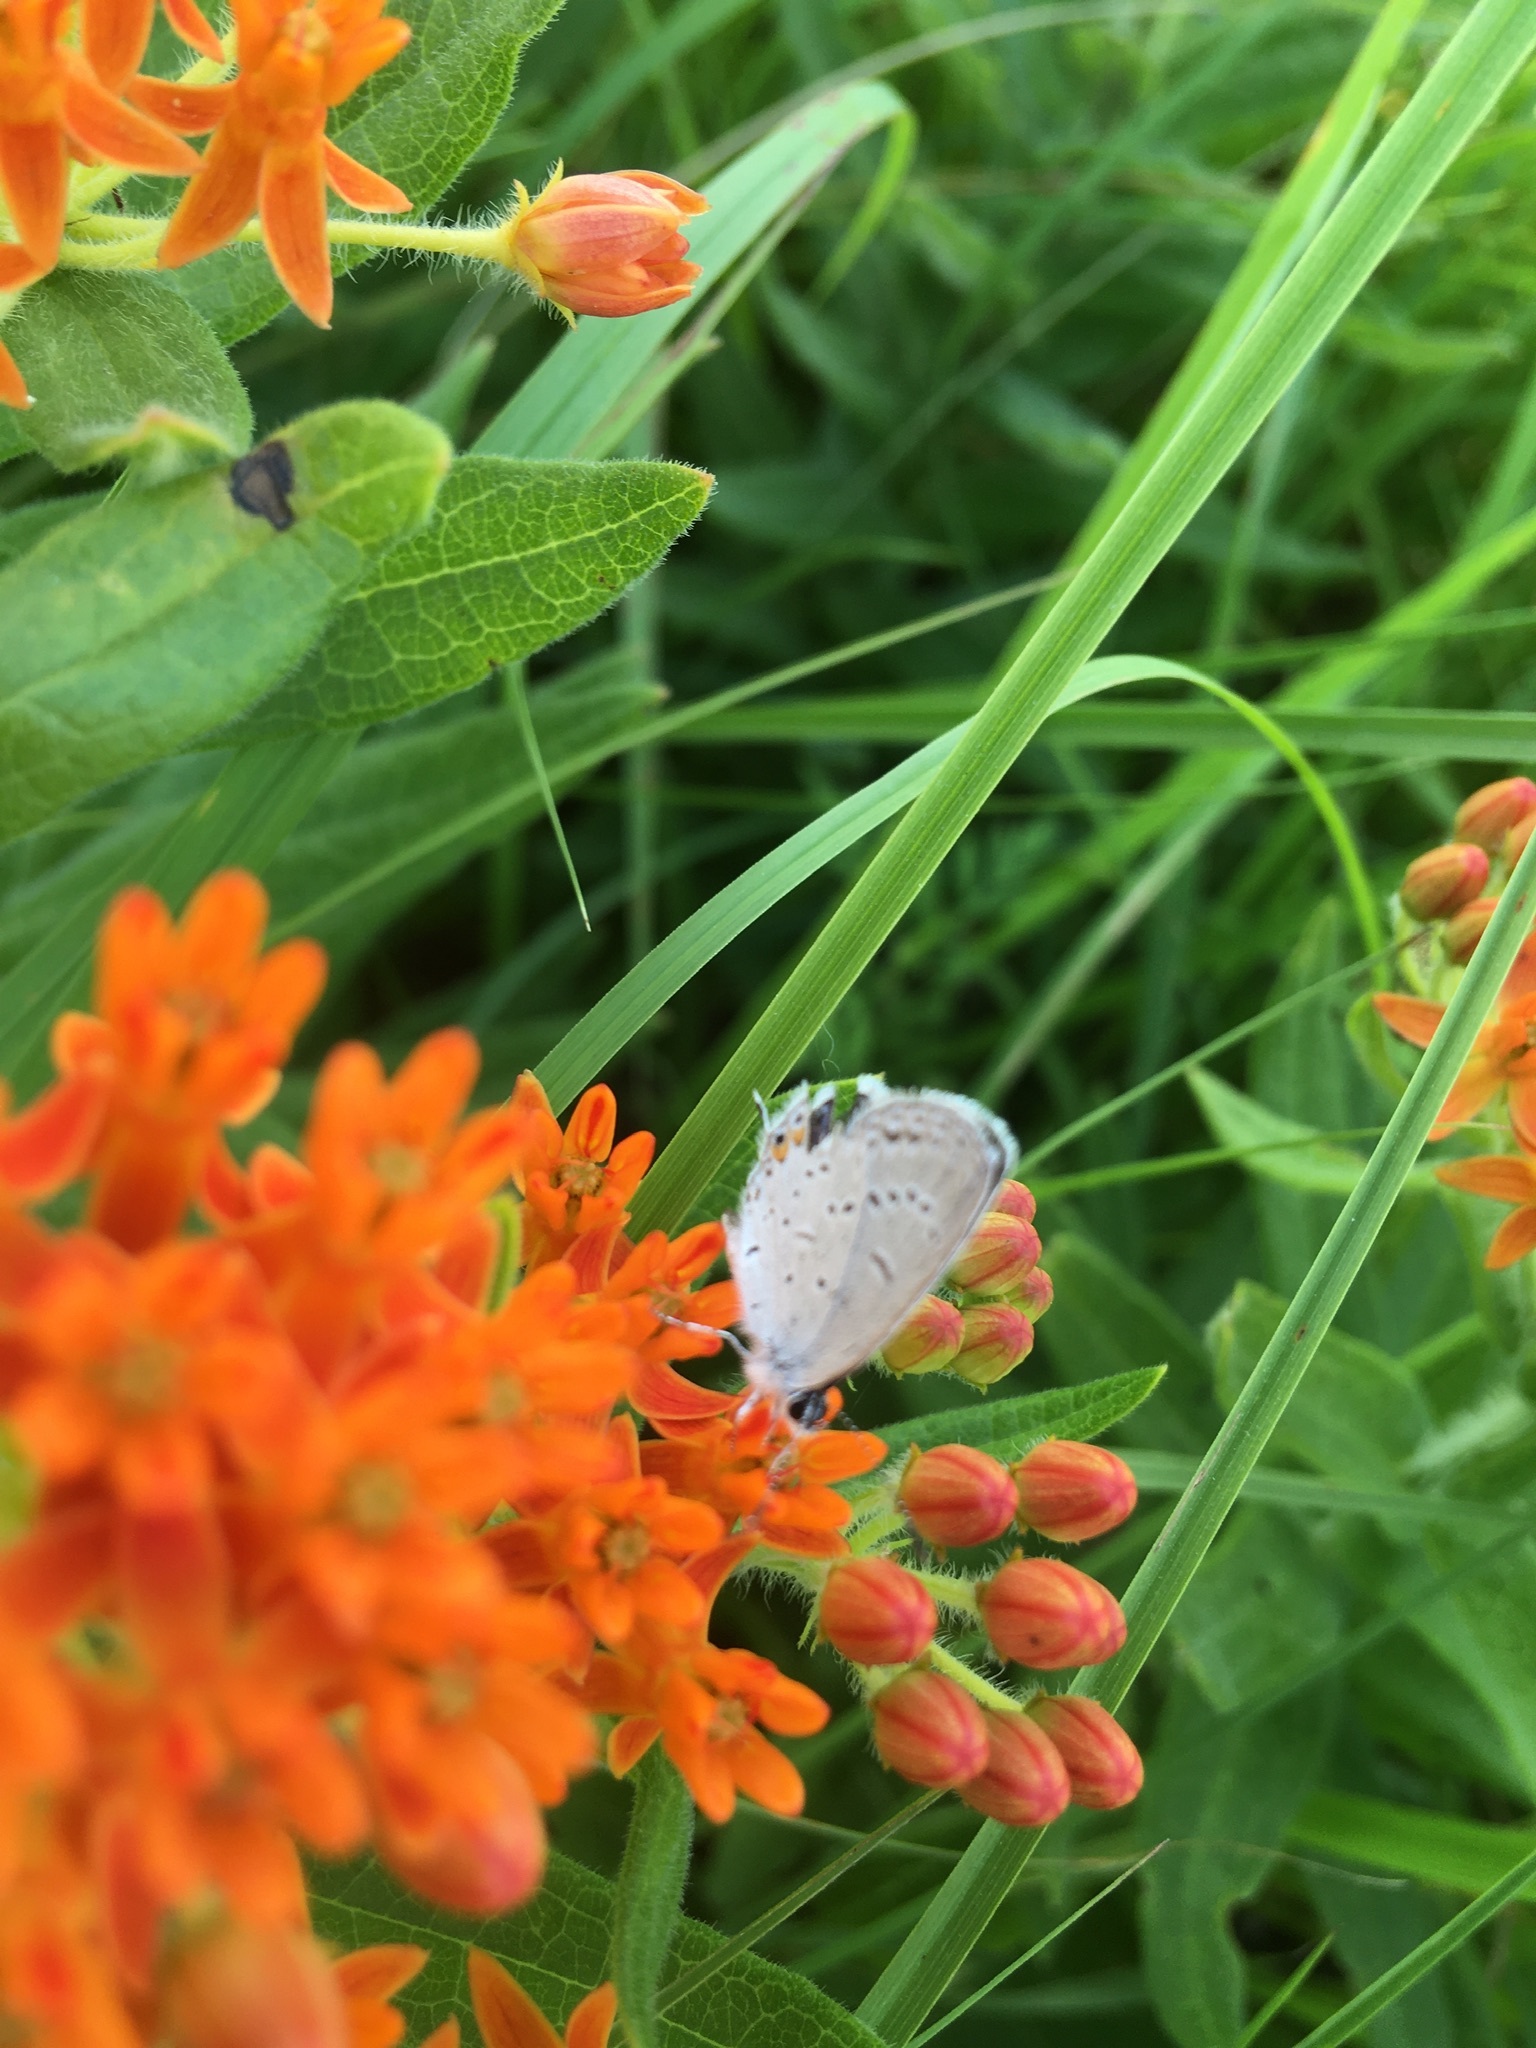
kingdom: Animalia
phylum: Arthropoda
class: Insecta
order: Lepidoptera
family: Lycaenidae
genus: Elkalyce
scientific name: Elkalyce comyntas
